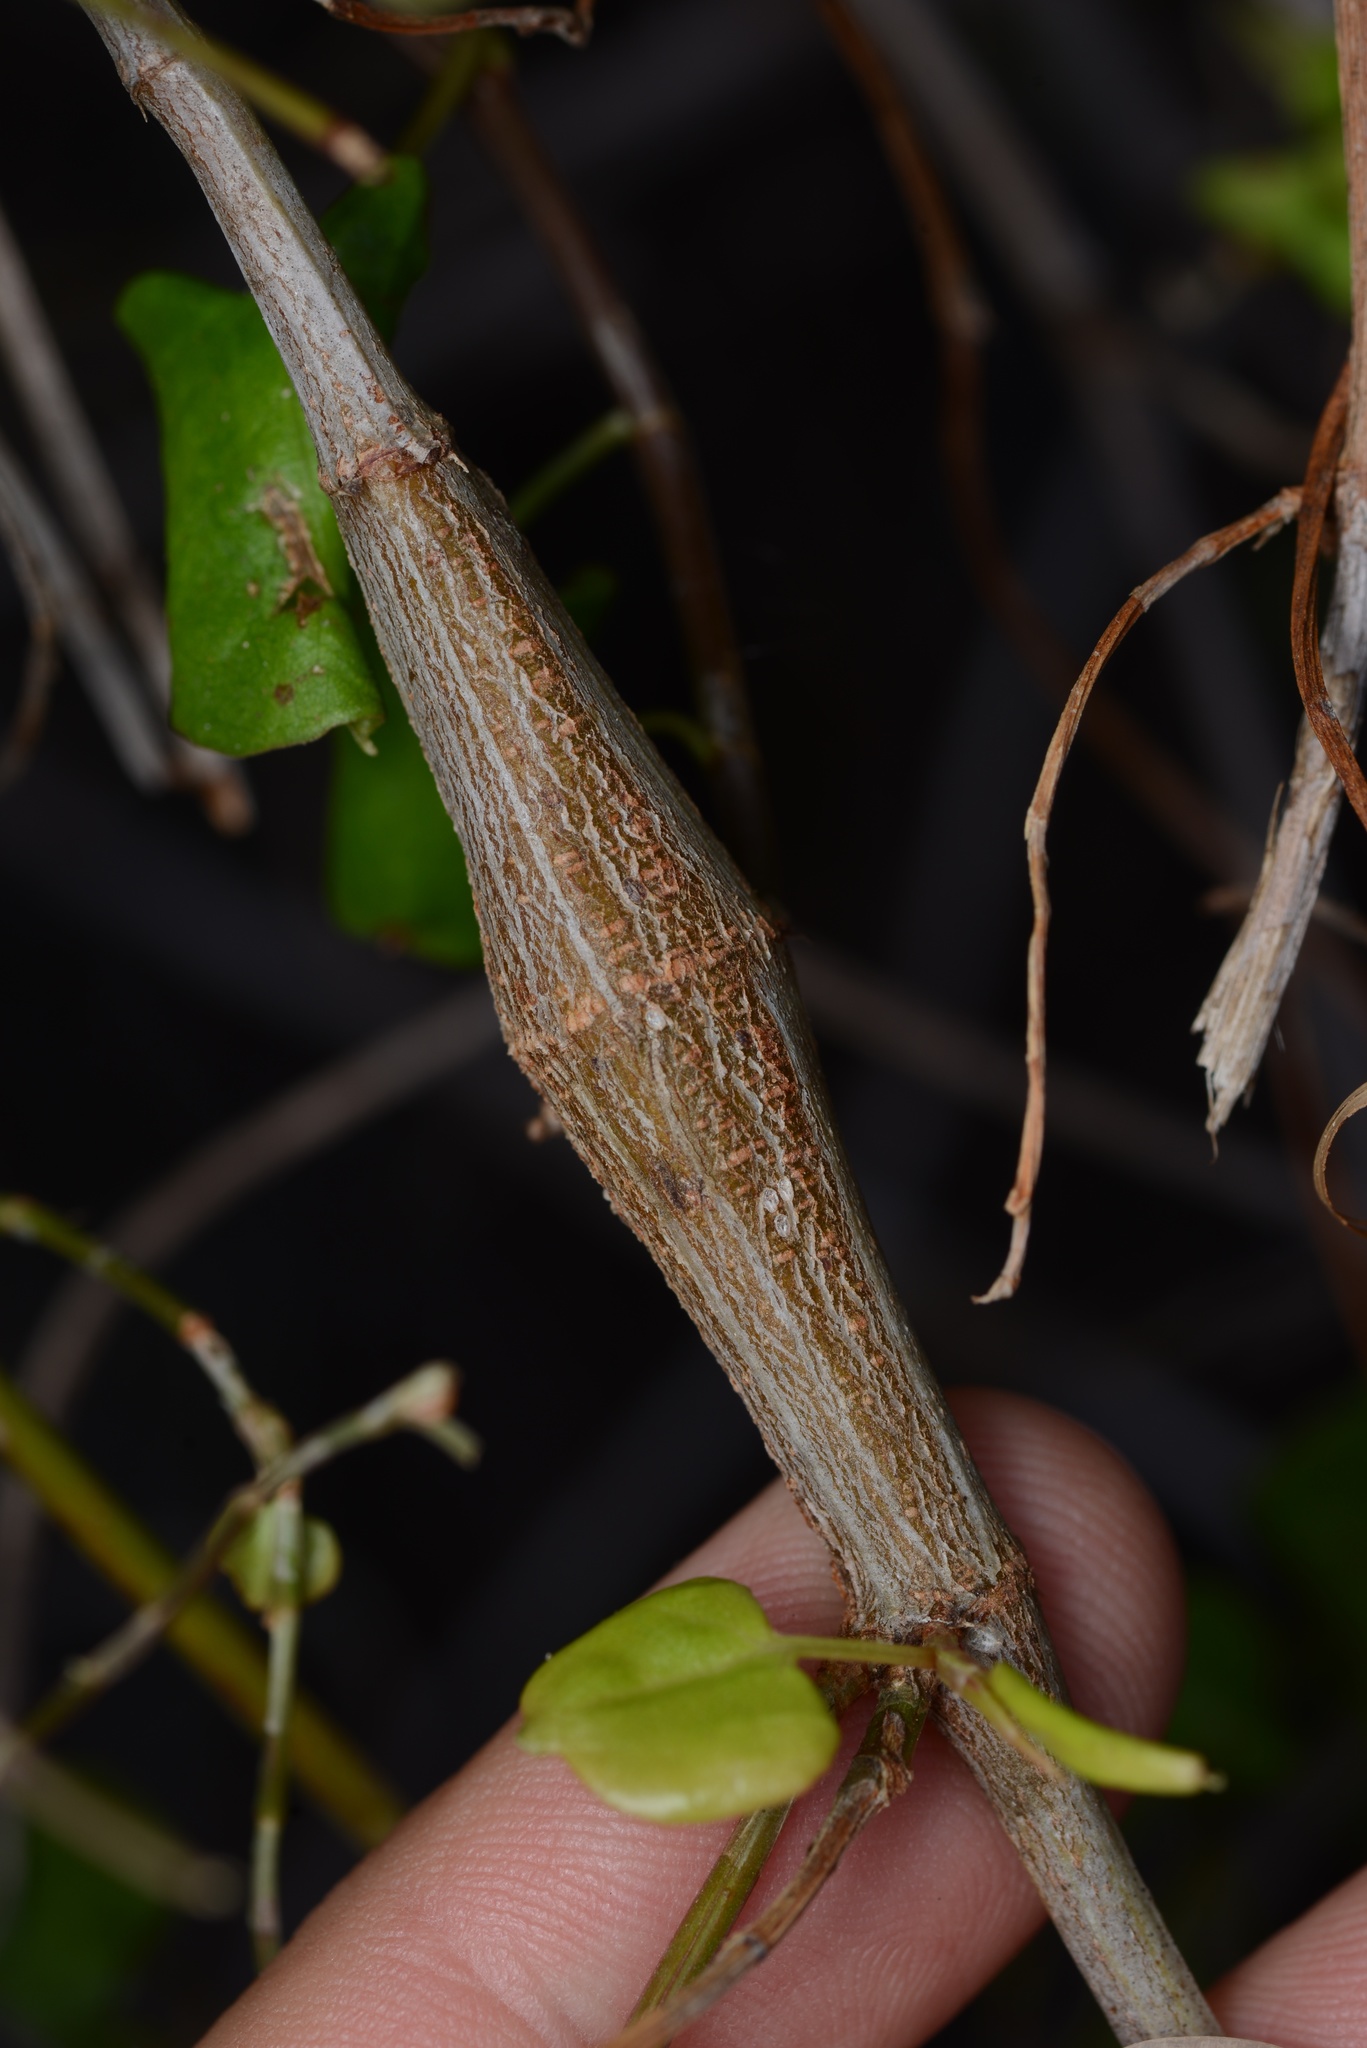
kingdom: Animalia
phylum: Arthropoda
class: Insecta
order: Lepidoptera
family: Thyrididae
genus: Morova
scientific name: Morova subfasciata
